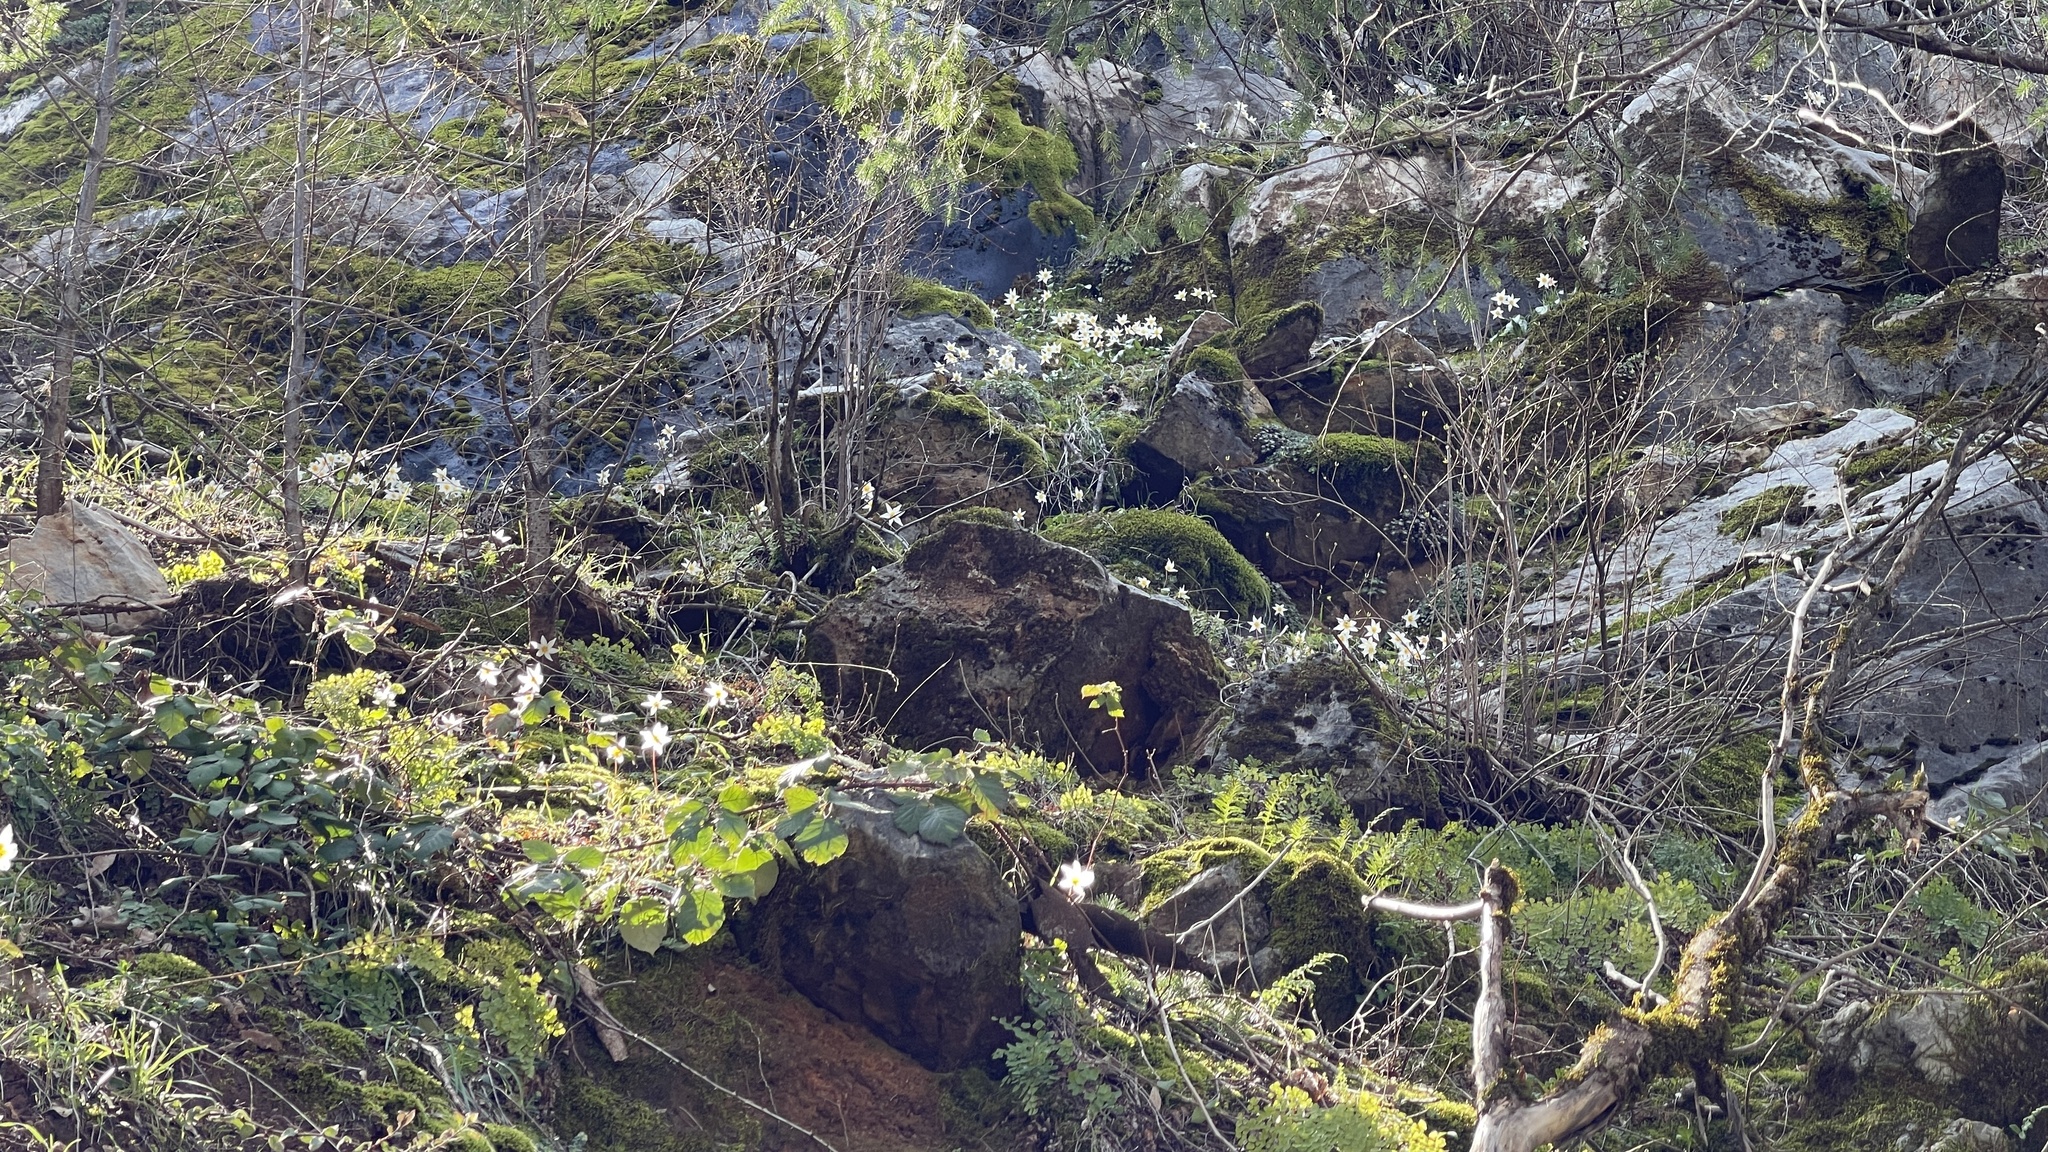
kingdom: Plantae
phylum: Tracheophyta
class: Liliopsida
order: Liliales
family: Liliaceae
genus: Erythronium
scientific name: Erythronium shastense
